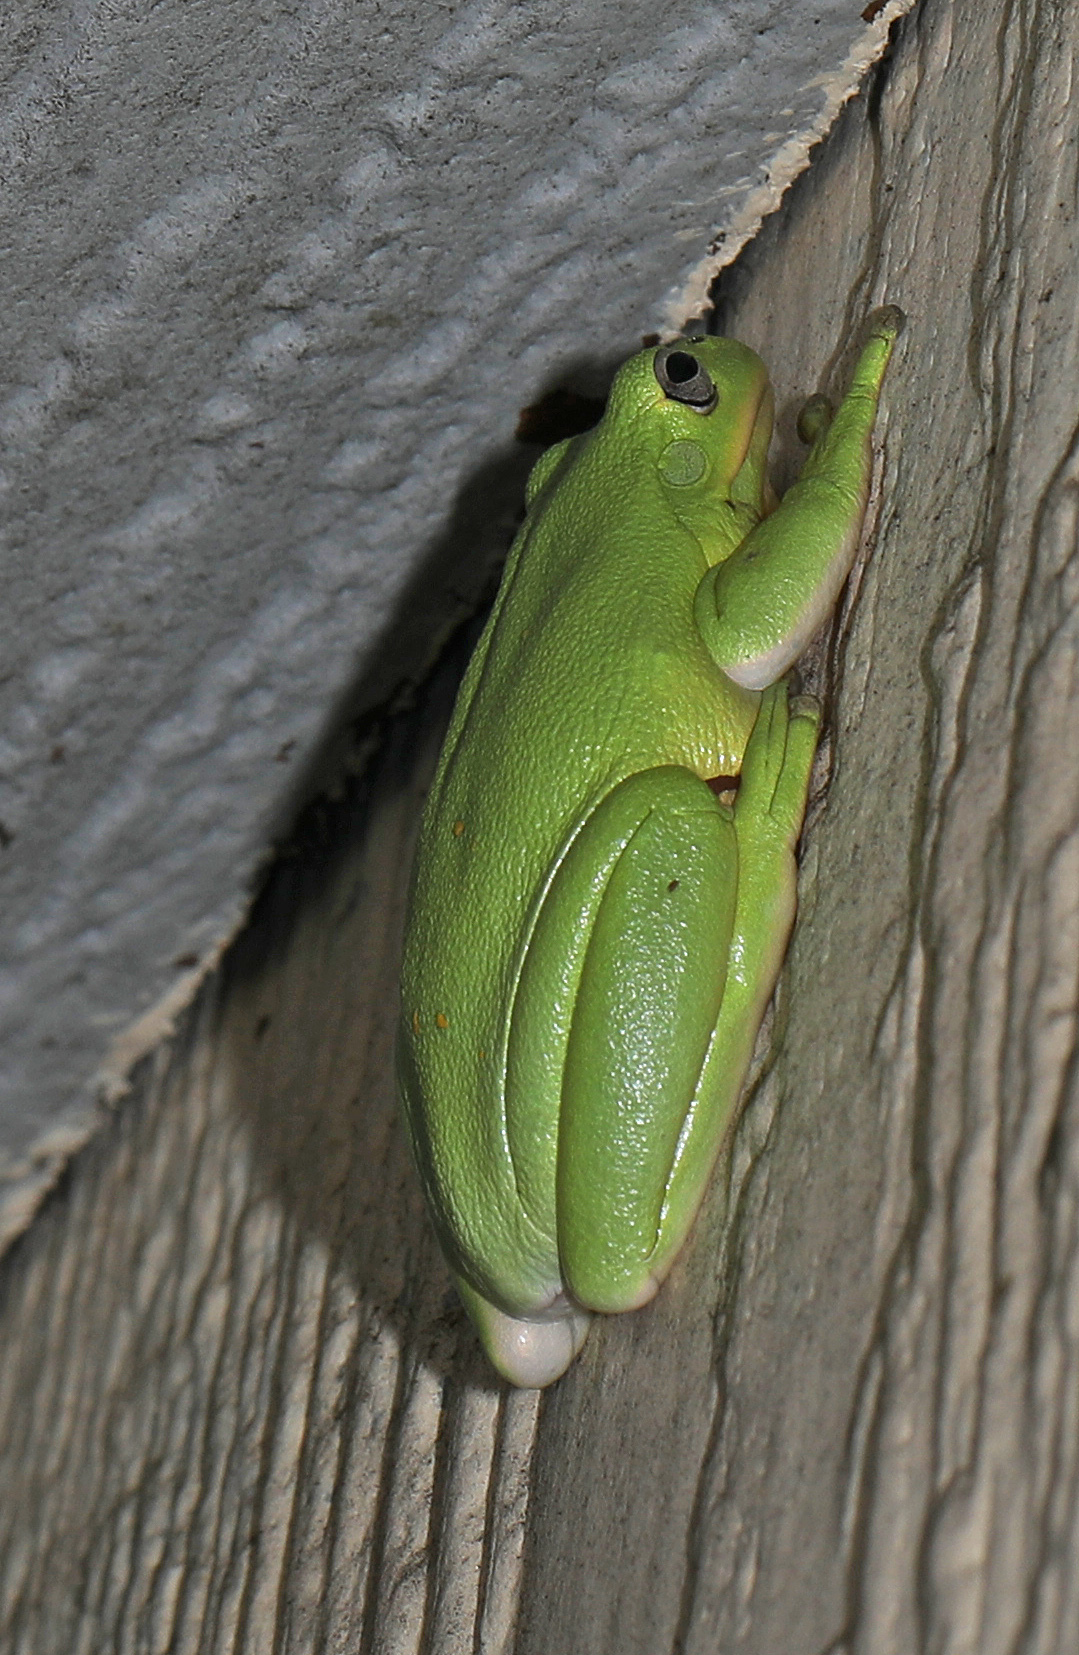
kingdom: Animalia
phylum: Chordata
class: Amphibia
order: Anura
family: Hylidae
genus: Dryophytes
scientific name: Dryophytes cinereus
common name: Green treefrog
